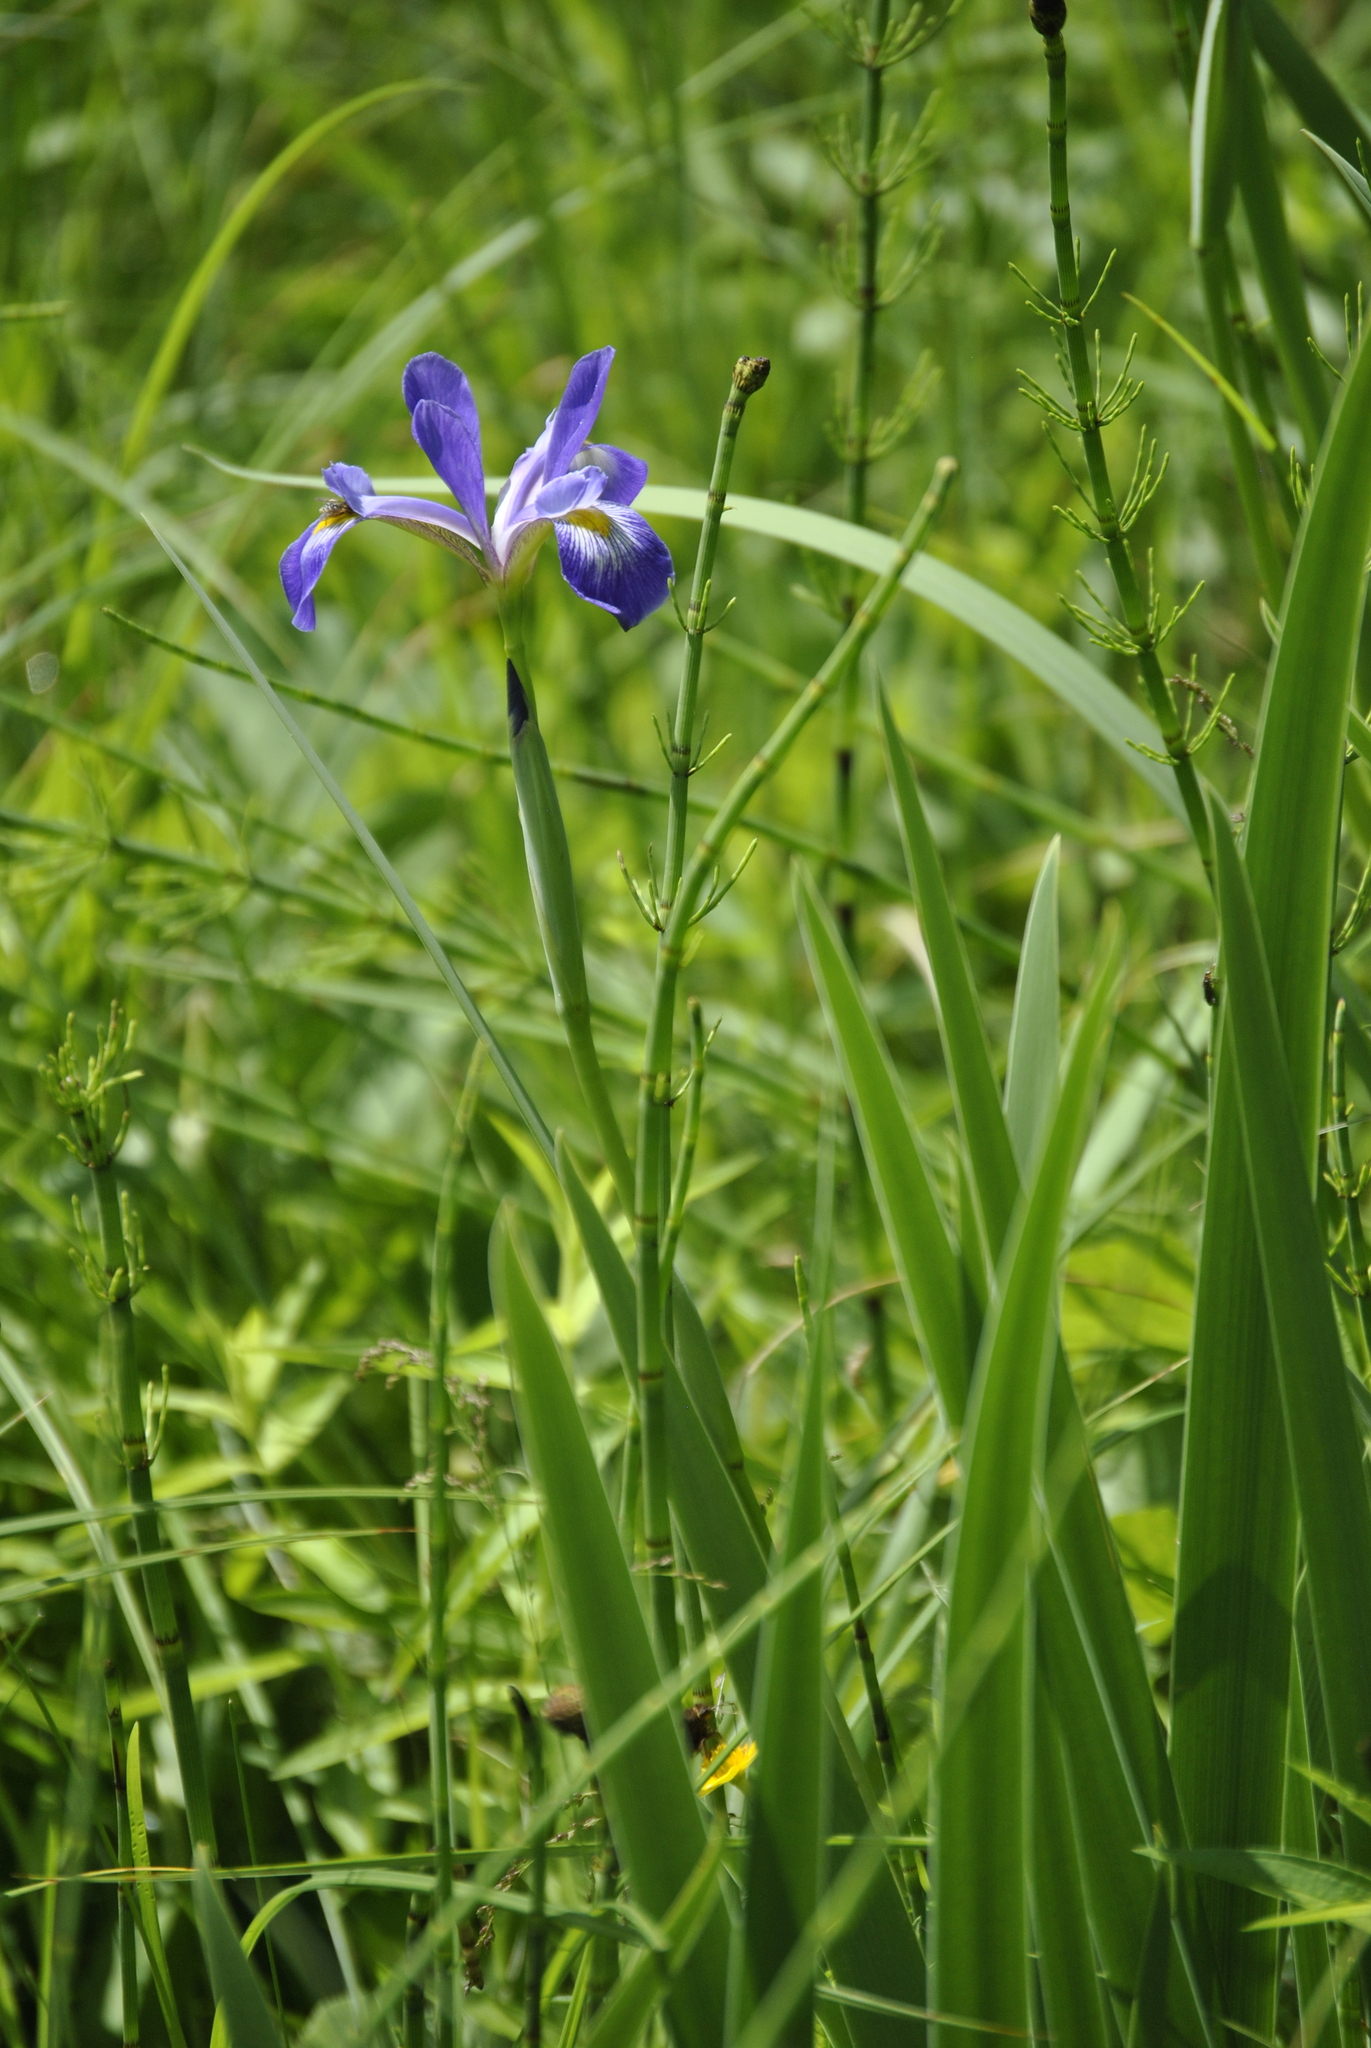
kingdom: Plantae
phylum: Tracheophyta
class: Liliopsida
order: Asparagales
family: Iridaceae
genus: Iris
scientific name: Iris virginica
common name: Southern blue flag
